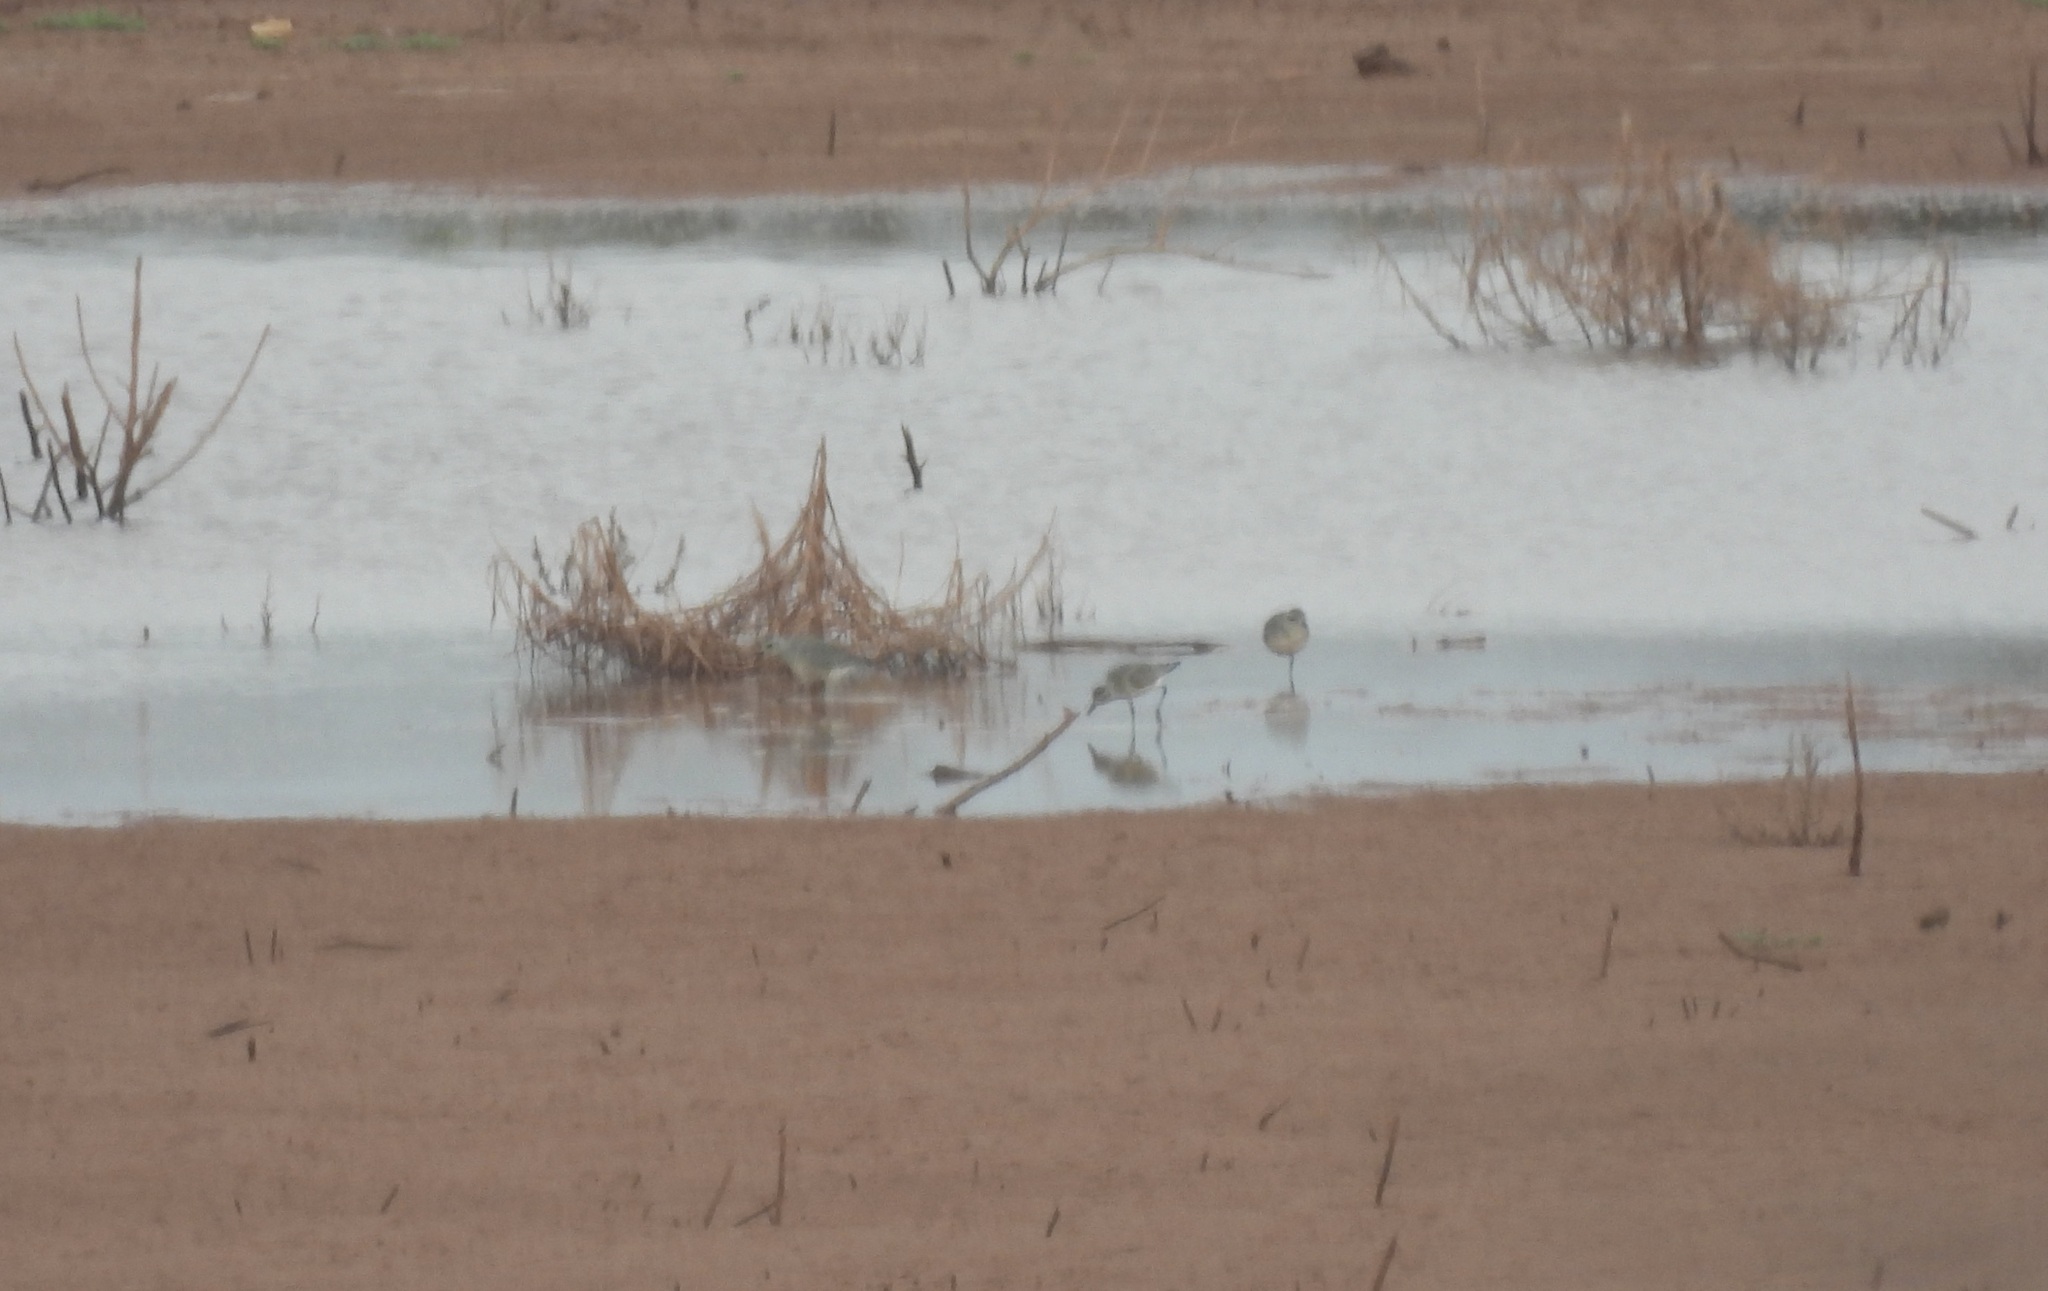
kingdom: Animalia
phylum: Chordata
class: Aves
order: Charadriiformes
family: Charadriidae
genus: Pluvialis
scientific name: Pluvialis squatarola
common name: Grey plover
